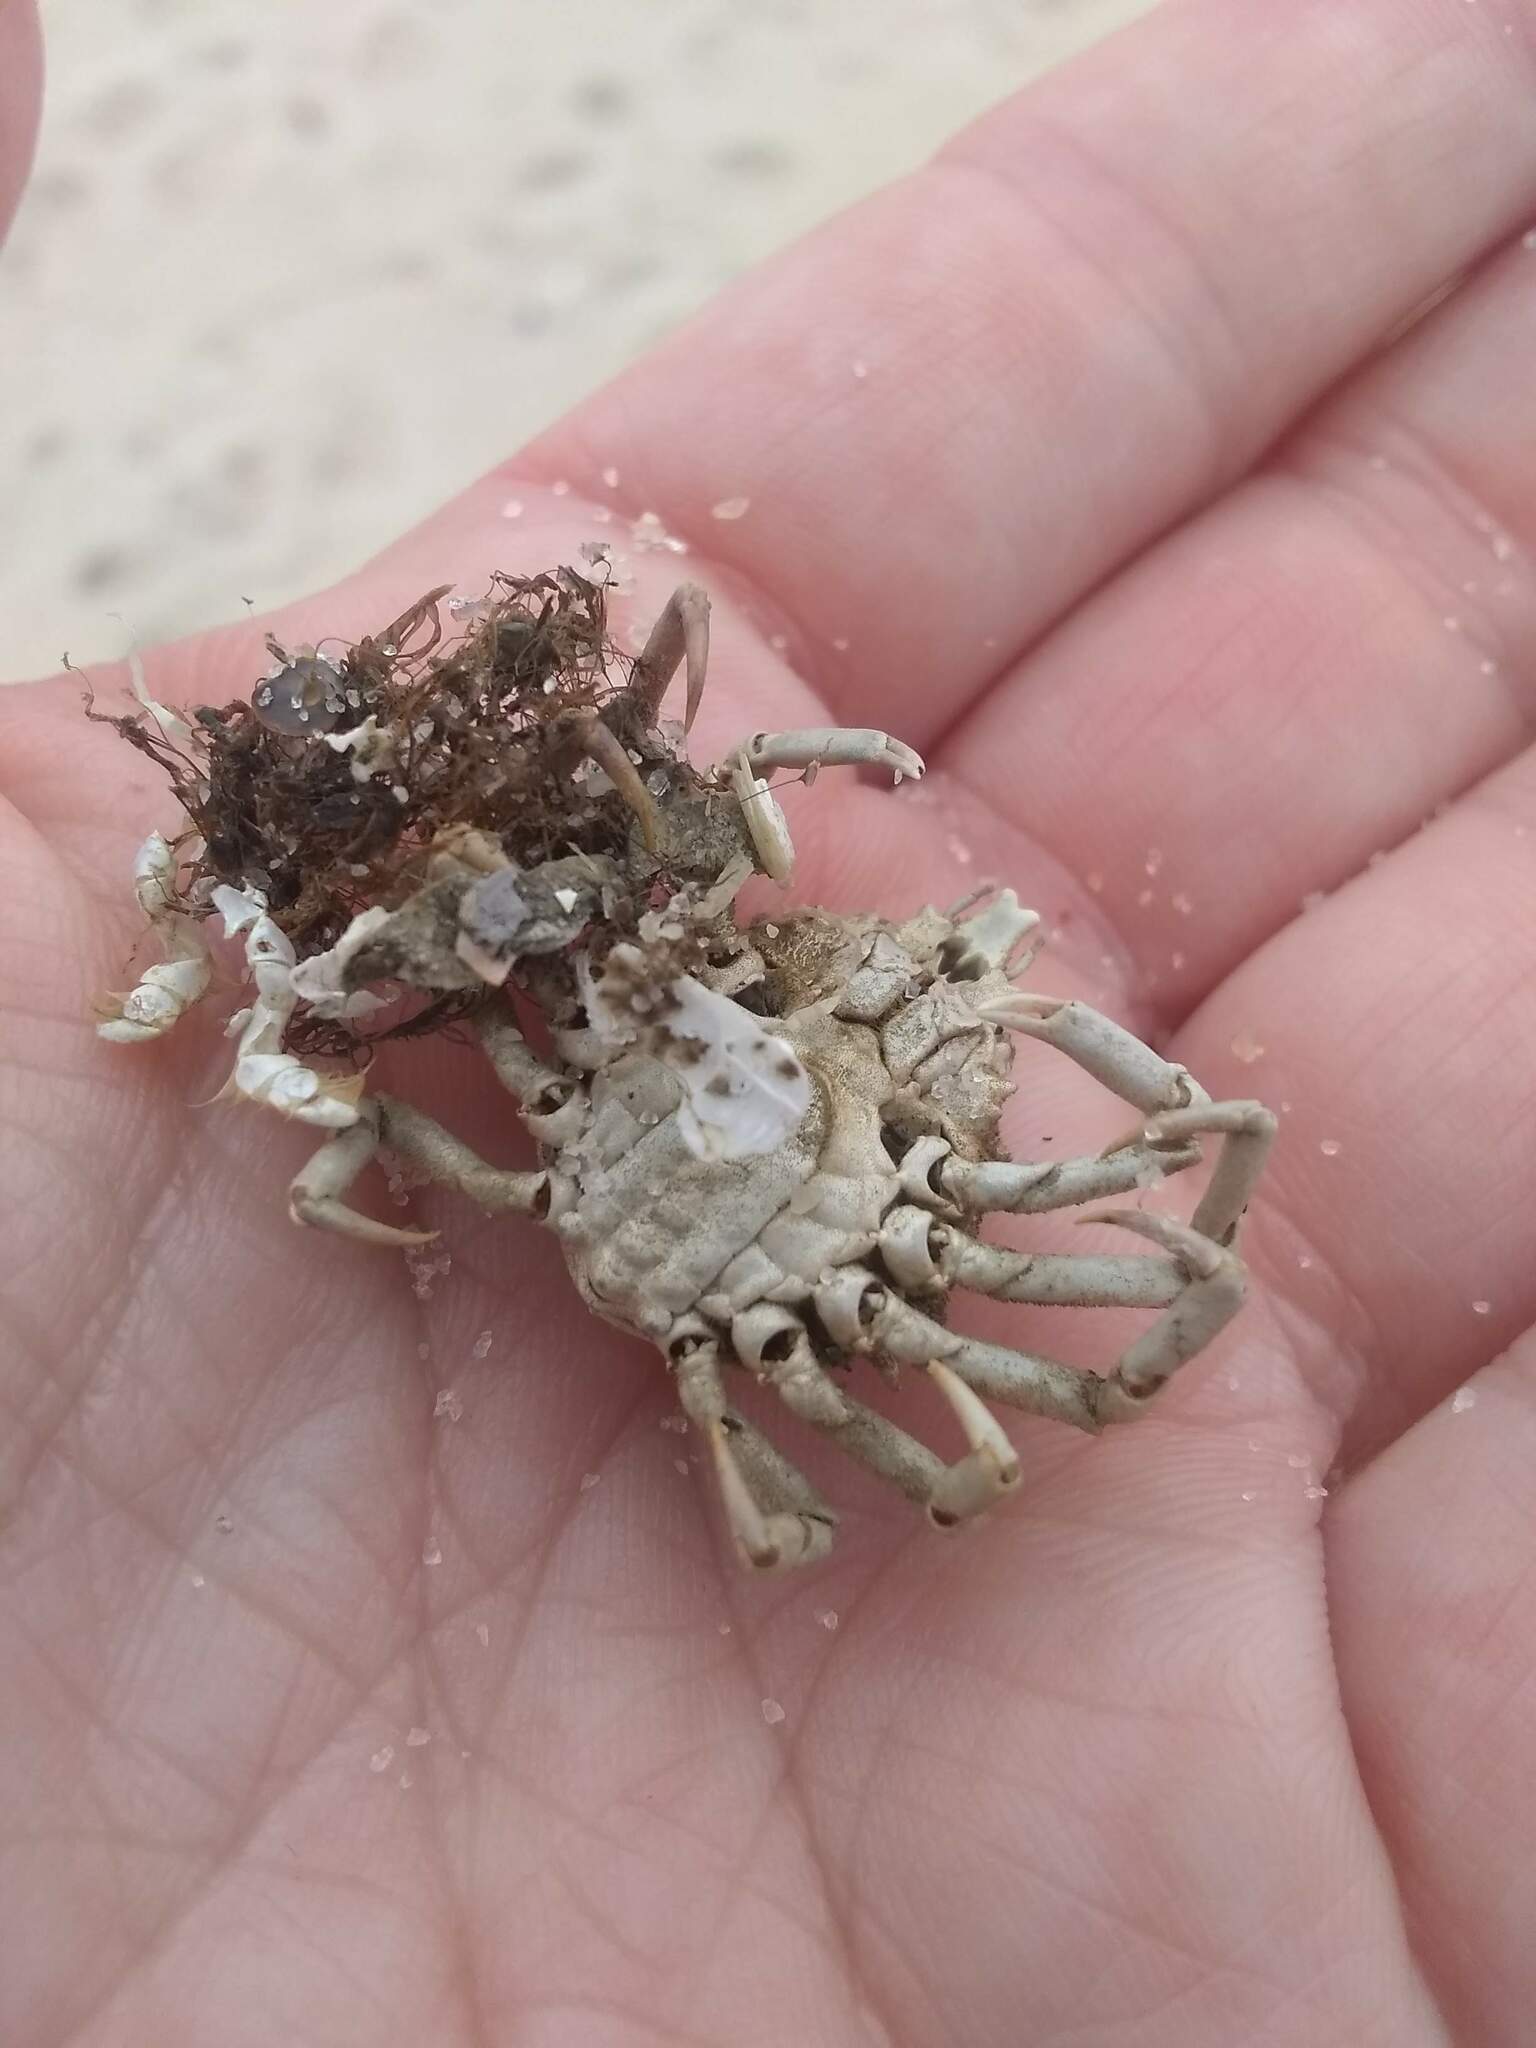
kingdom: Animalia
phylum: Arthropoda
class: Malacostraca
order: Decapoda
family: Epialtidae
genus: Libinia
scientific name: Libinia emarginata
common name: Common spider crab
